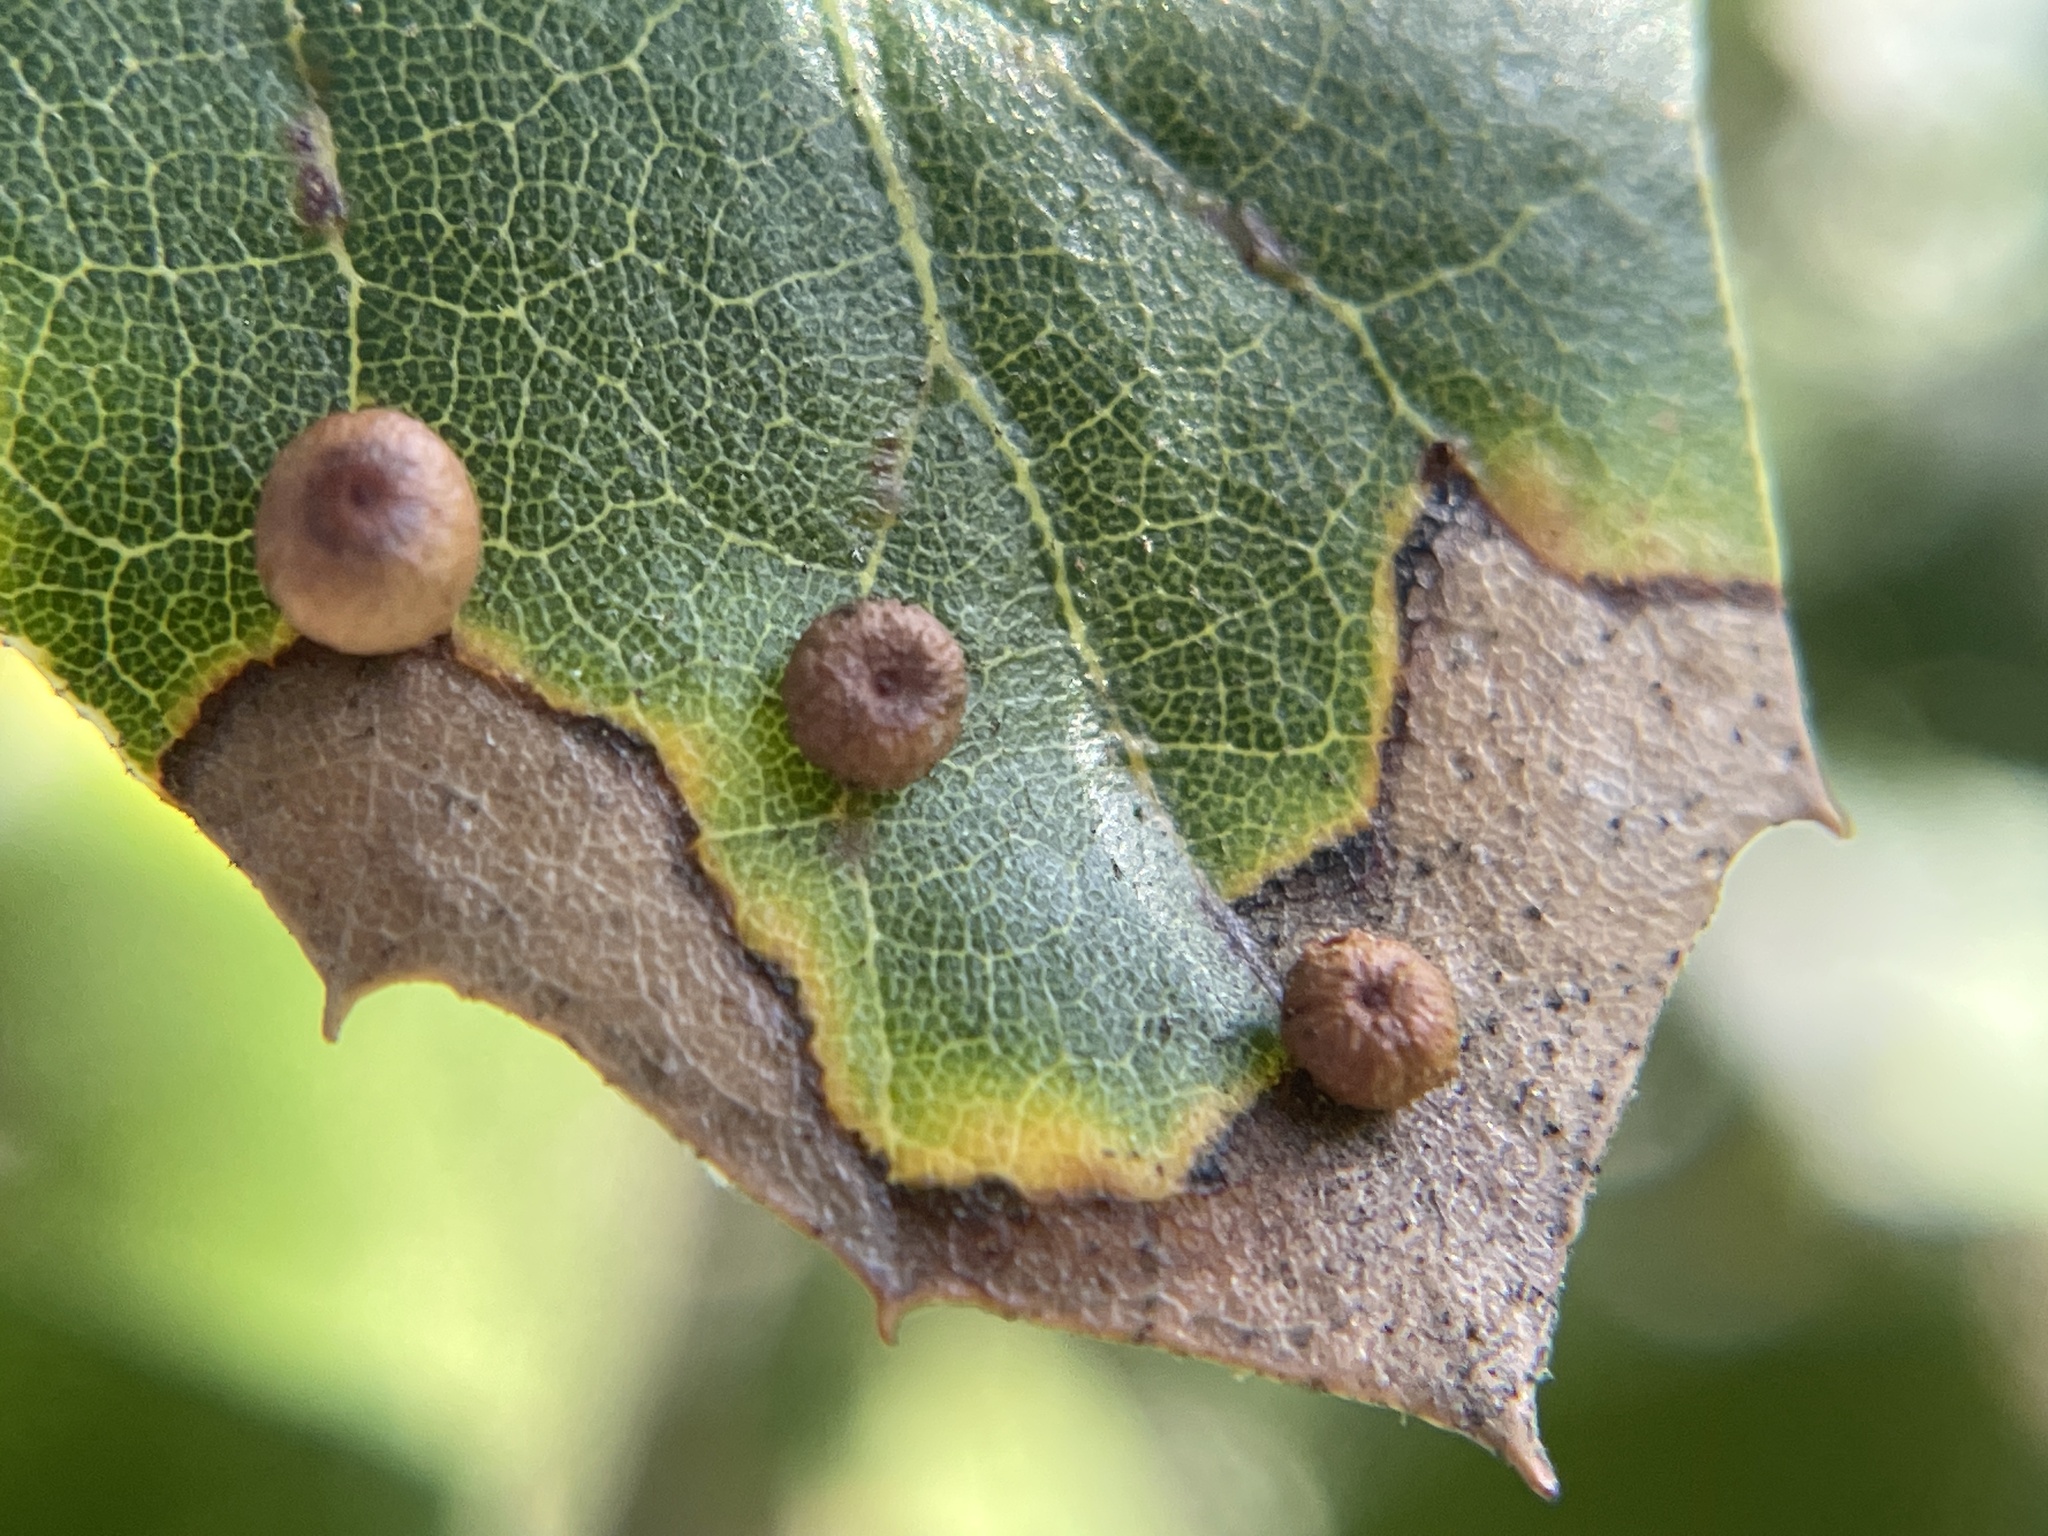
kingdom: Animalia
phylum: Arthropoda
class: Insecta
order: Hymenoptera
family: Cynipidae
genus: Dryocosmus
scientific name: Dryocosmus
